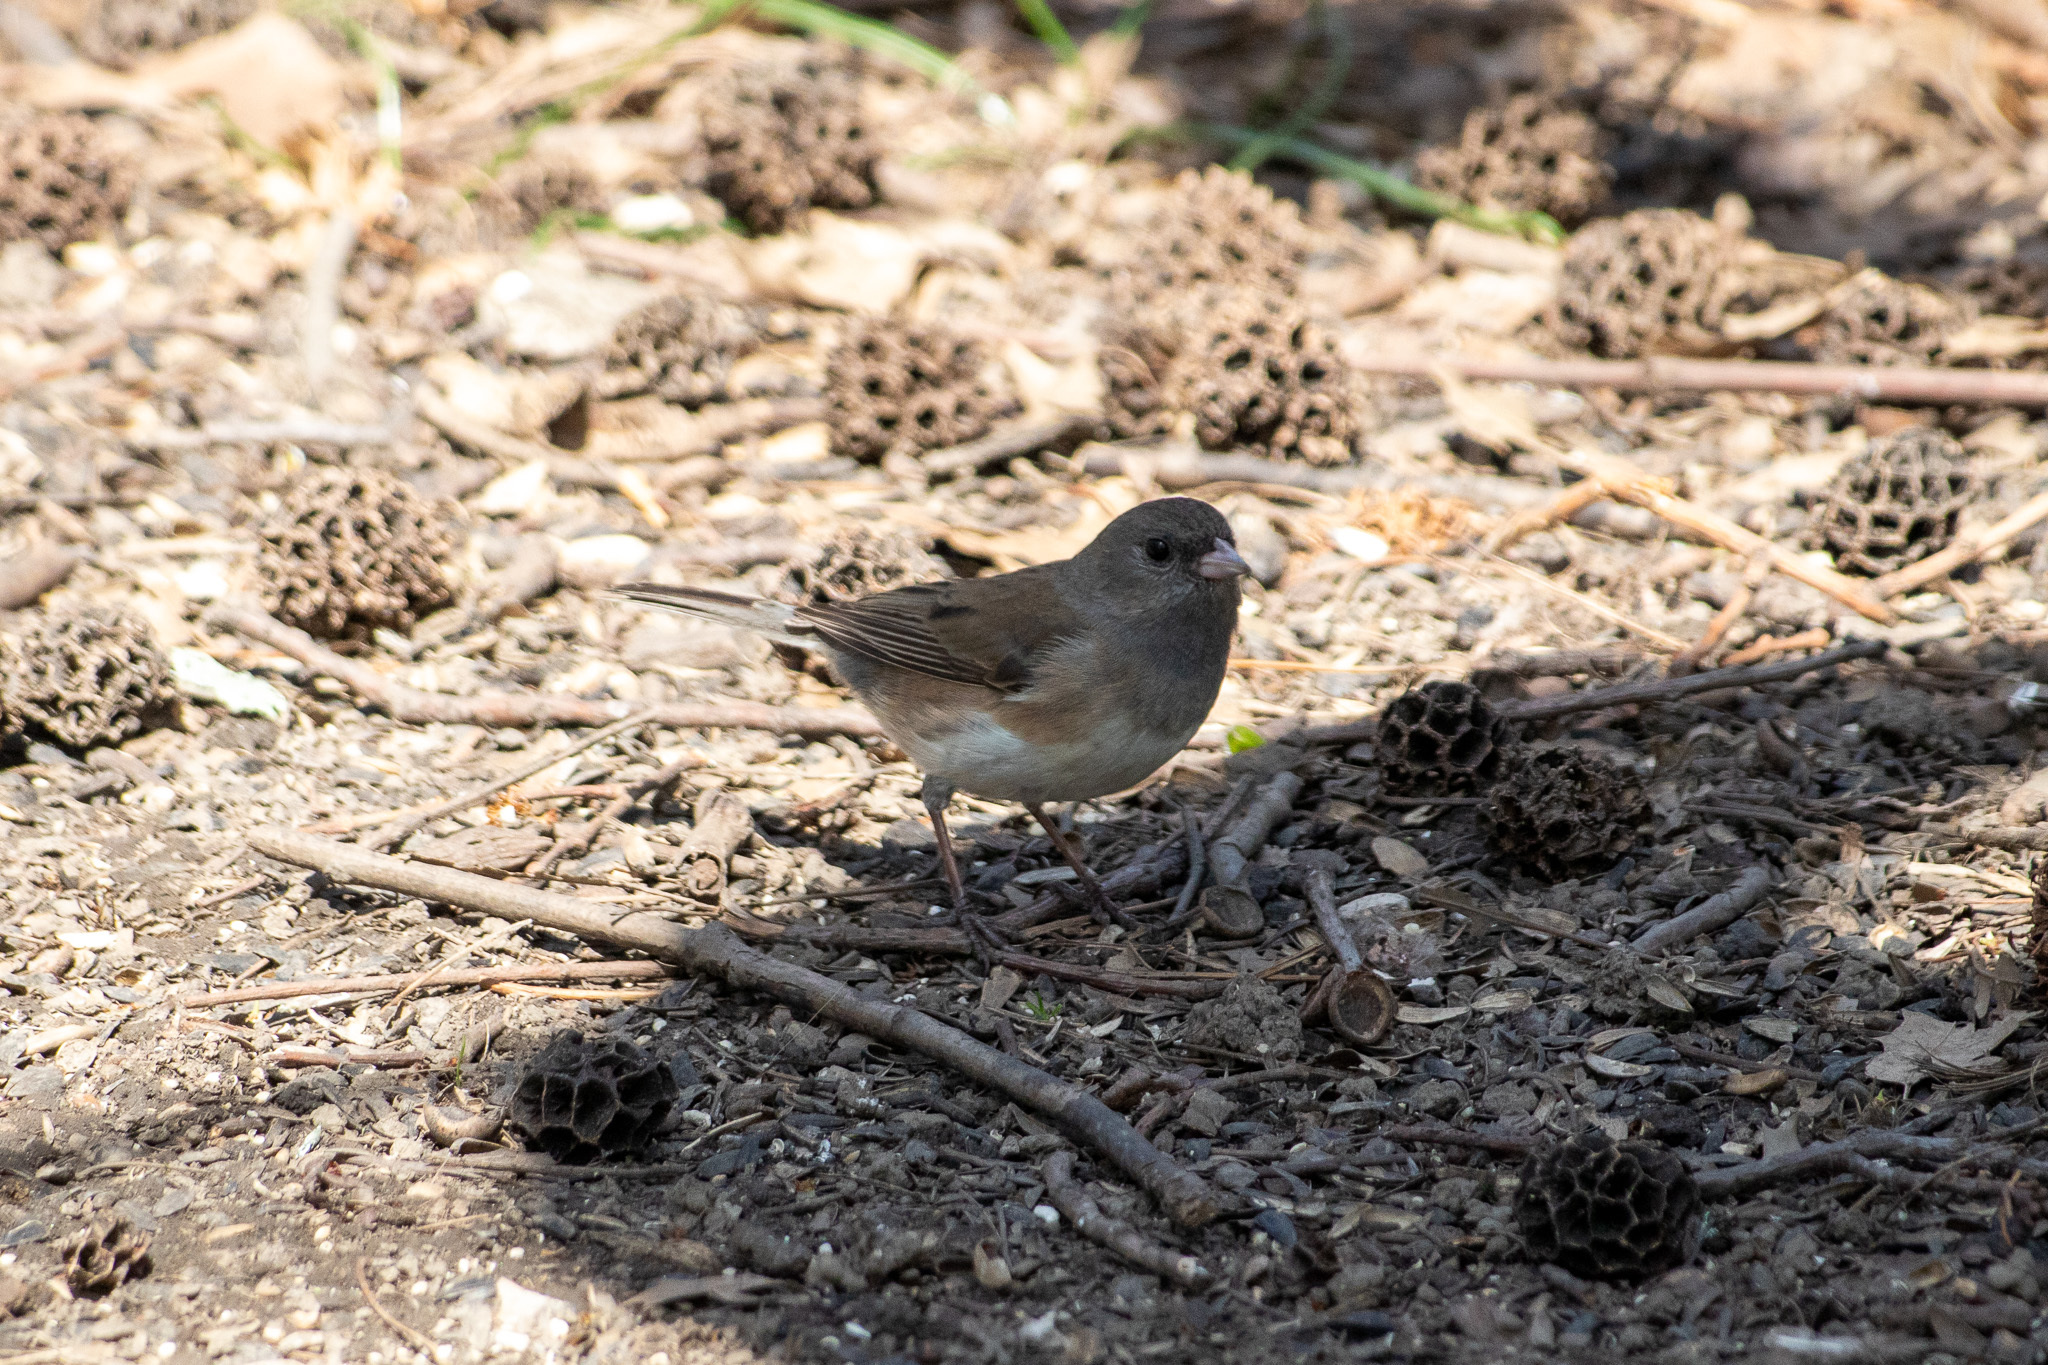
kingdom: Animalia
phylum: Chordata
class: Aves
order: Passeriformes
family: Passerellidae
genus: Junco
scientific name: Junco hyemalis
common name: Dark-eyed junco
